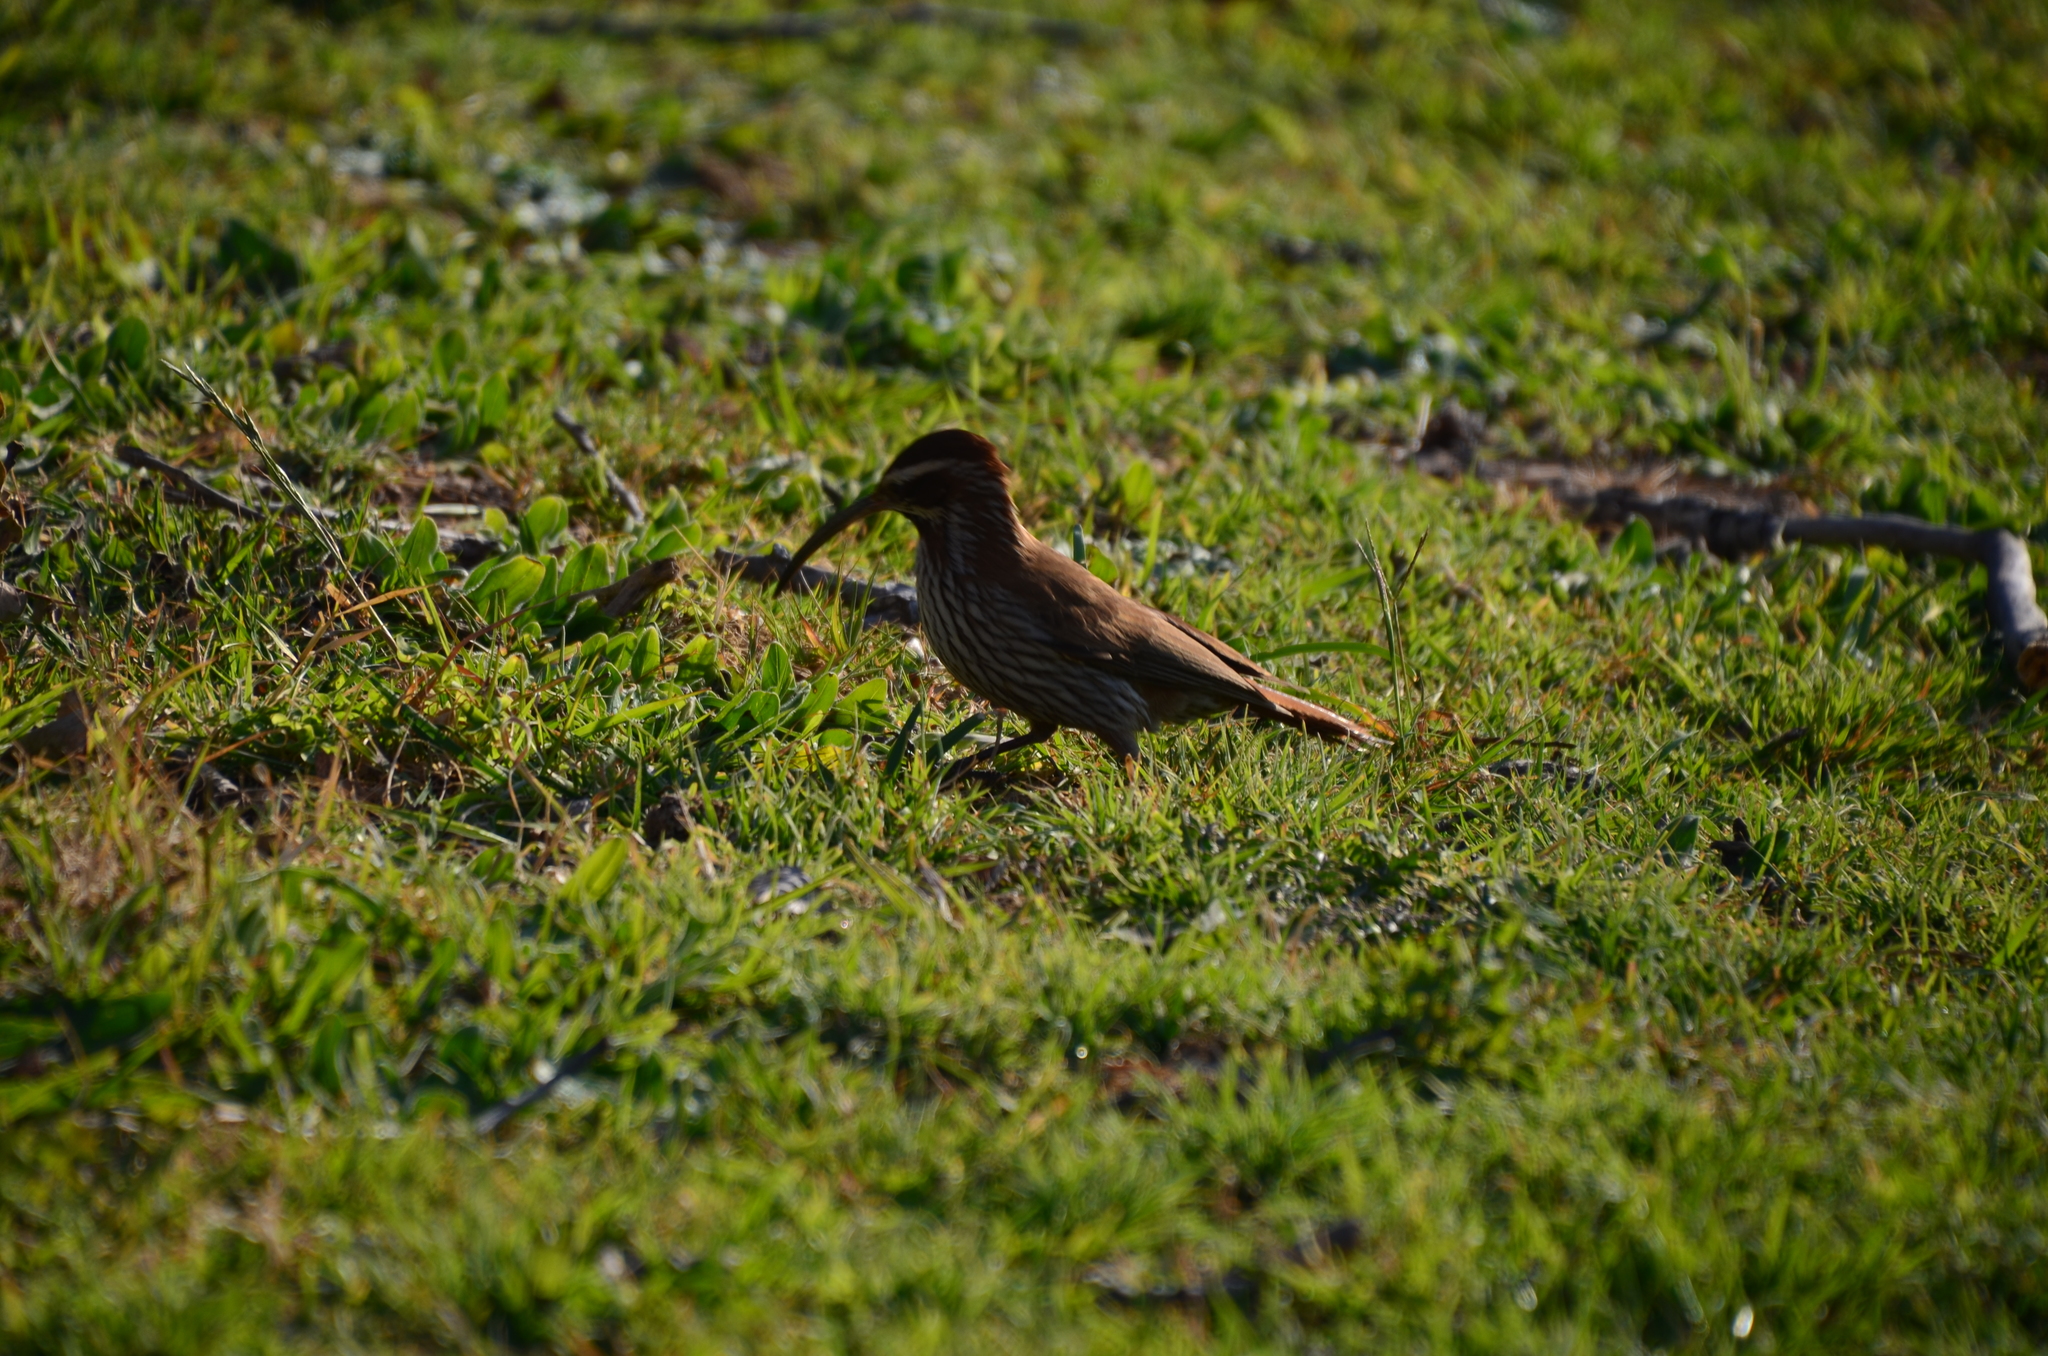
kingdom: Animalia
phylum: Chordata
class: Aves
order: Passeriformes
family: Furnariidae
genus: Drymornis
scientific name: Drymornis bridgesii
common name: Scimitar-billed woodcreeper
